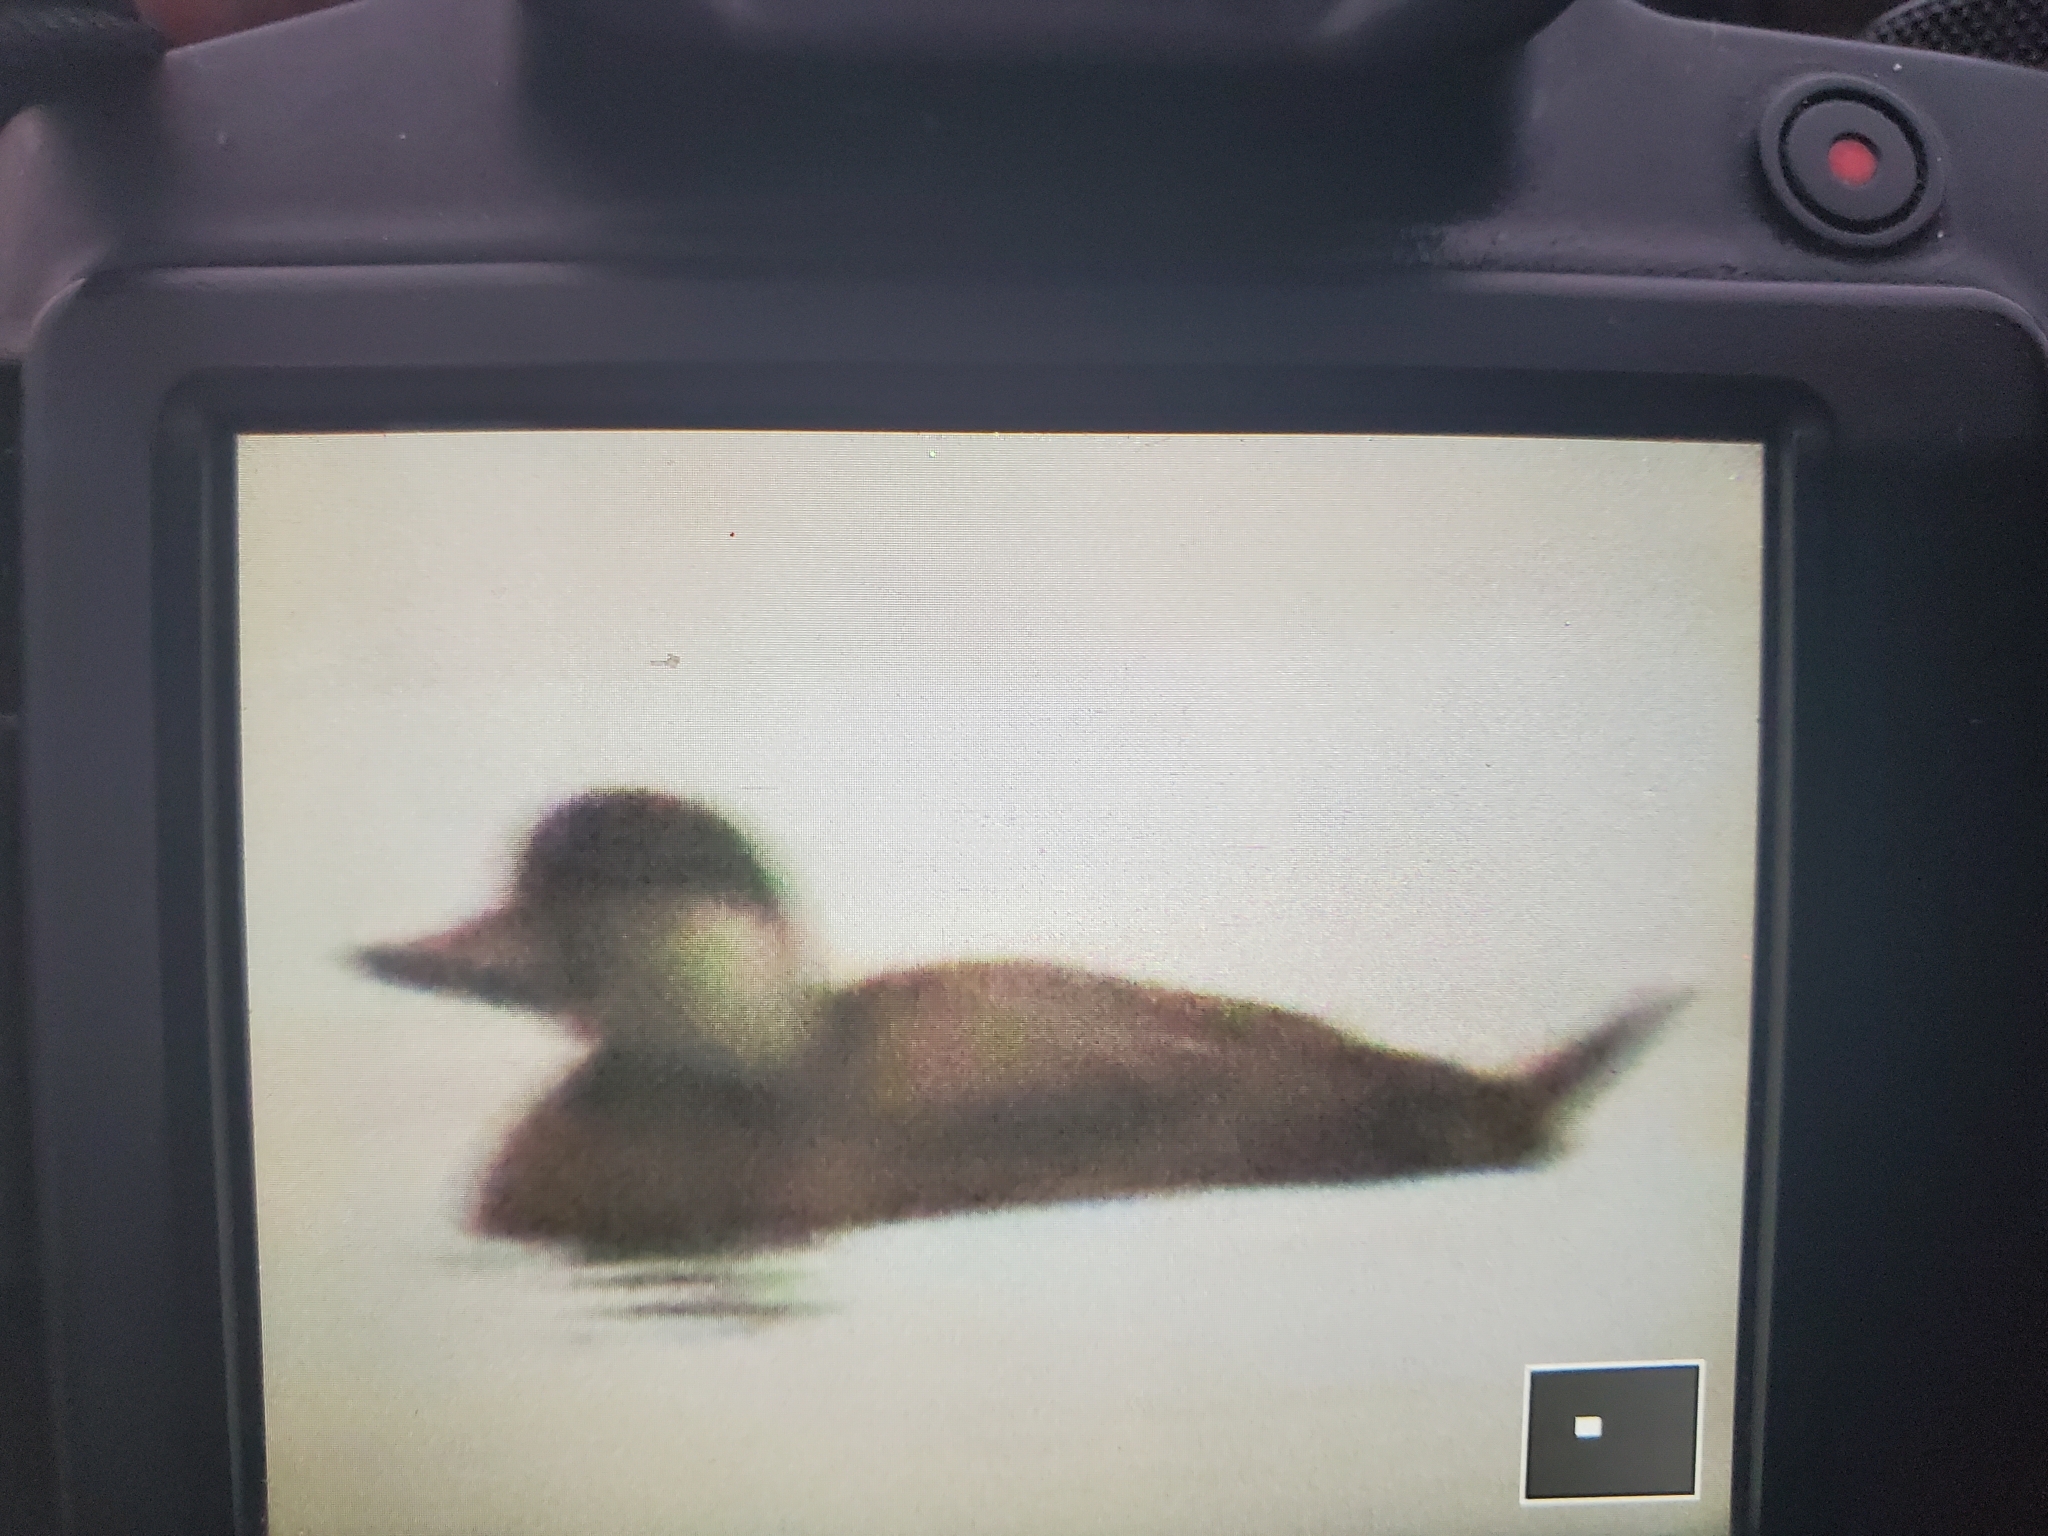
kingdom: Animalia
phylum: Chordata
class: Aves
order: Anseriformes
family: Anatidae
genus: Melanitta
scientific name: Melanitta americana
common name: Black scoter
